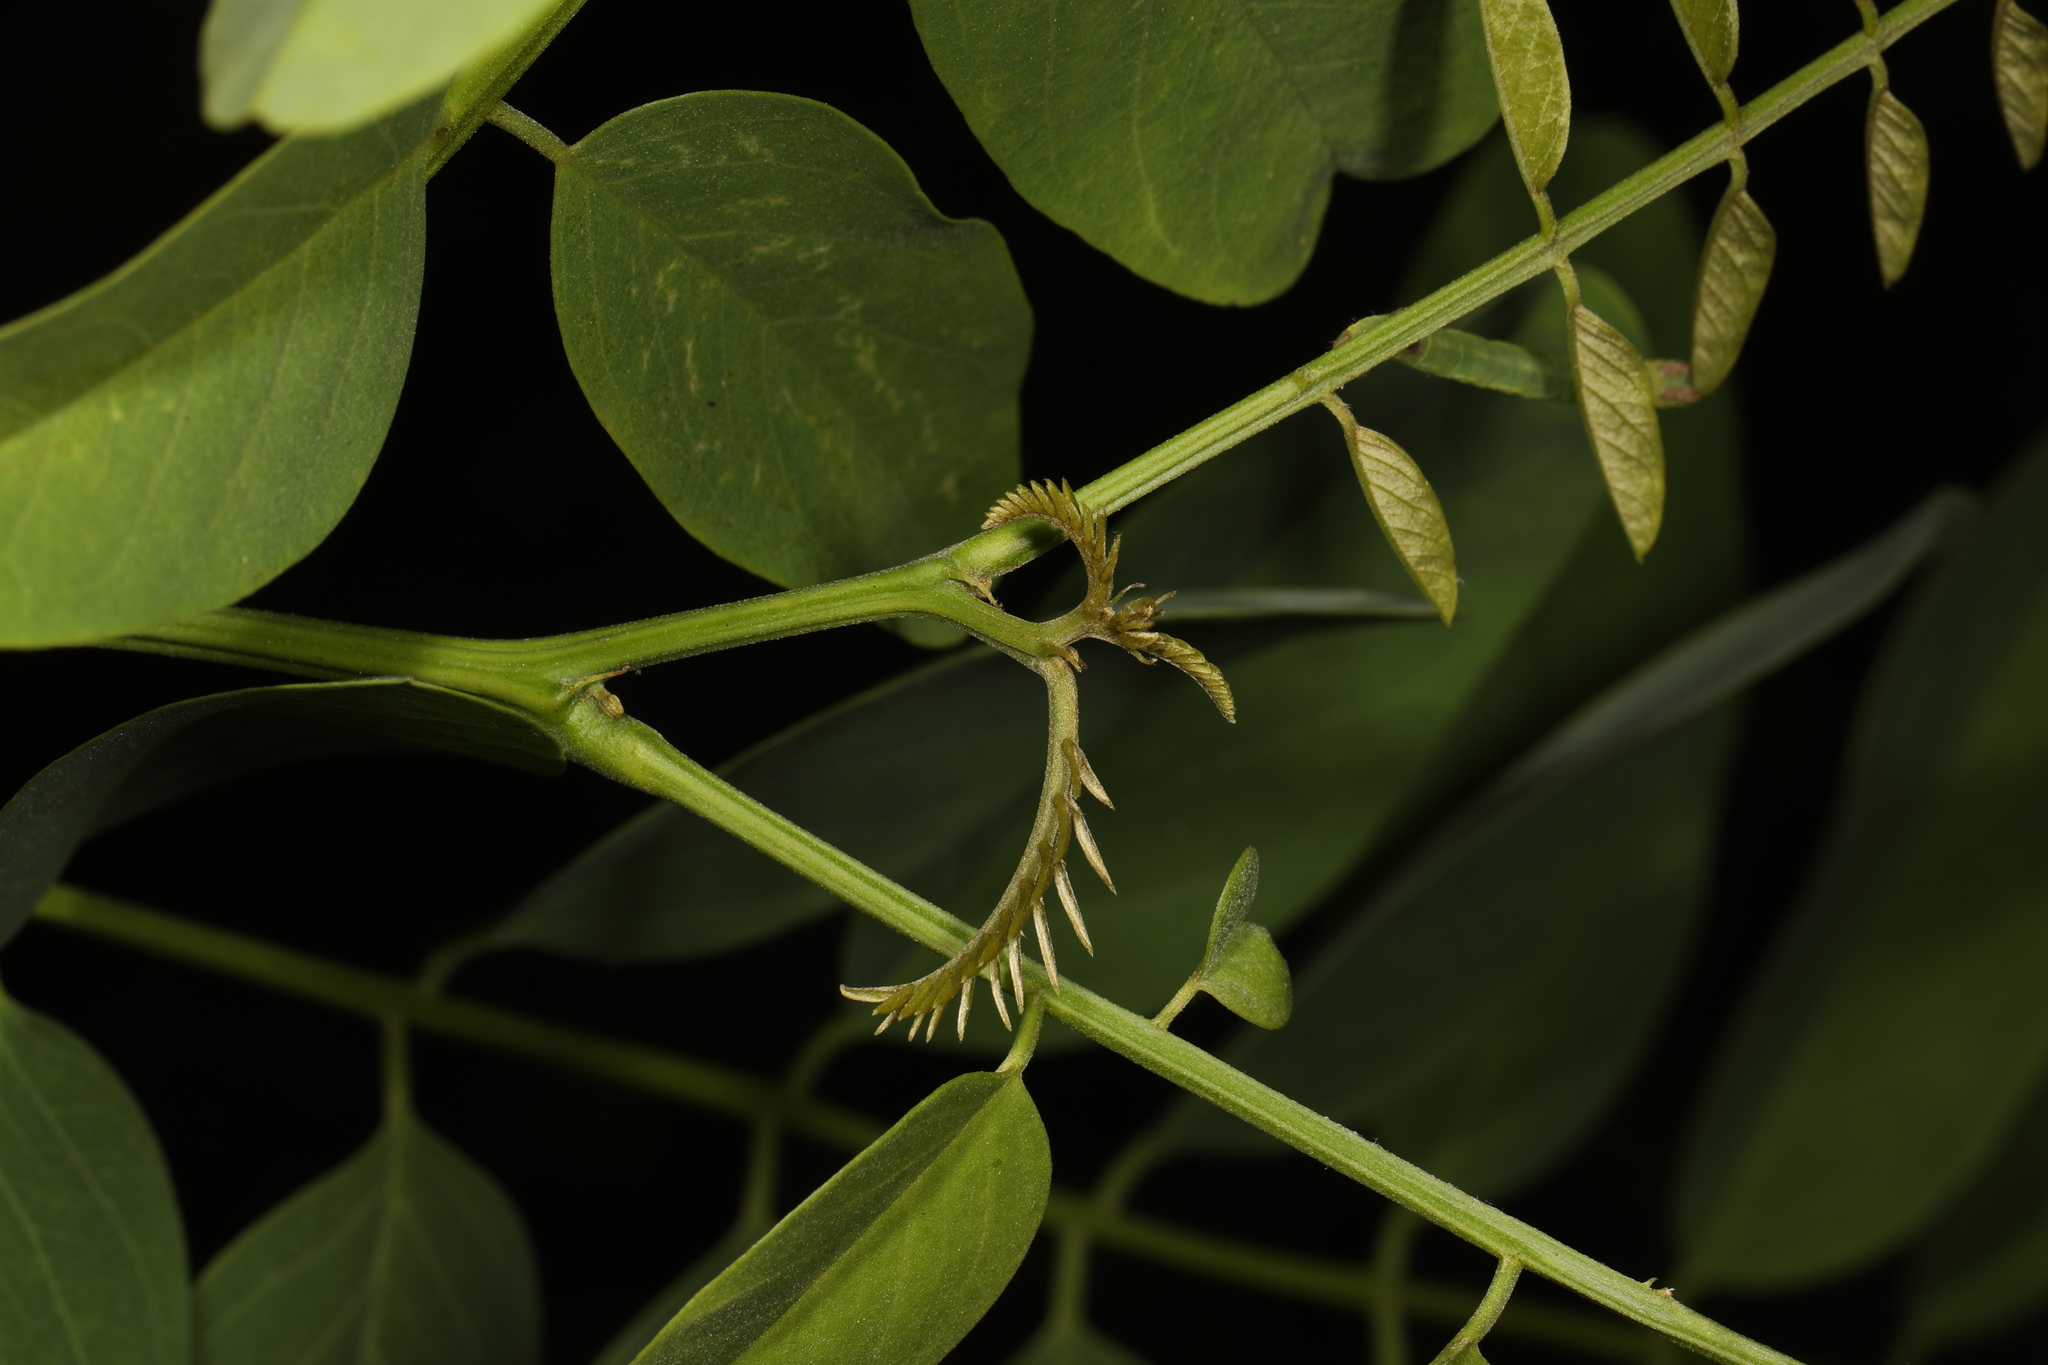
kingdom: Plantae
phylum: Tracheophyta
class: Magnoliopsida
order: Fabales
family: Fabaceae
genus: Robinia
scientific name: Robinia pseudoacacia
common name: Black locust
